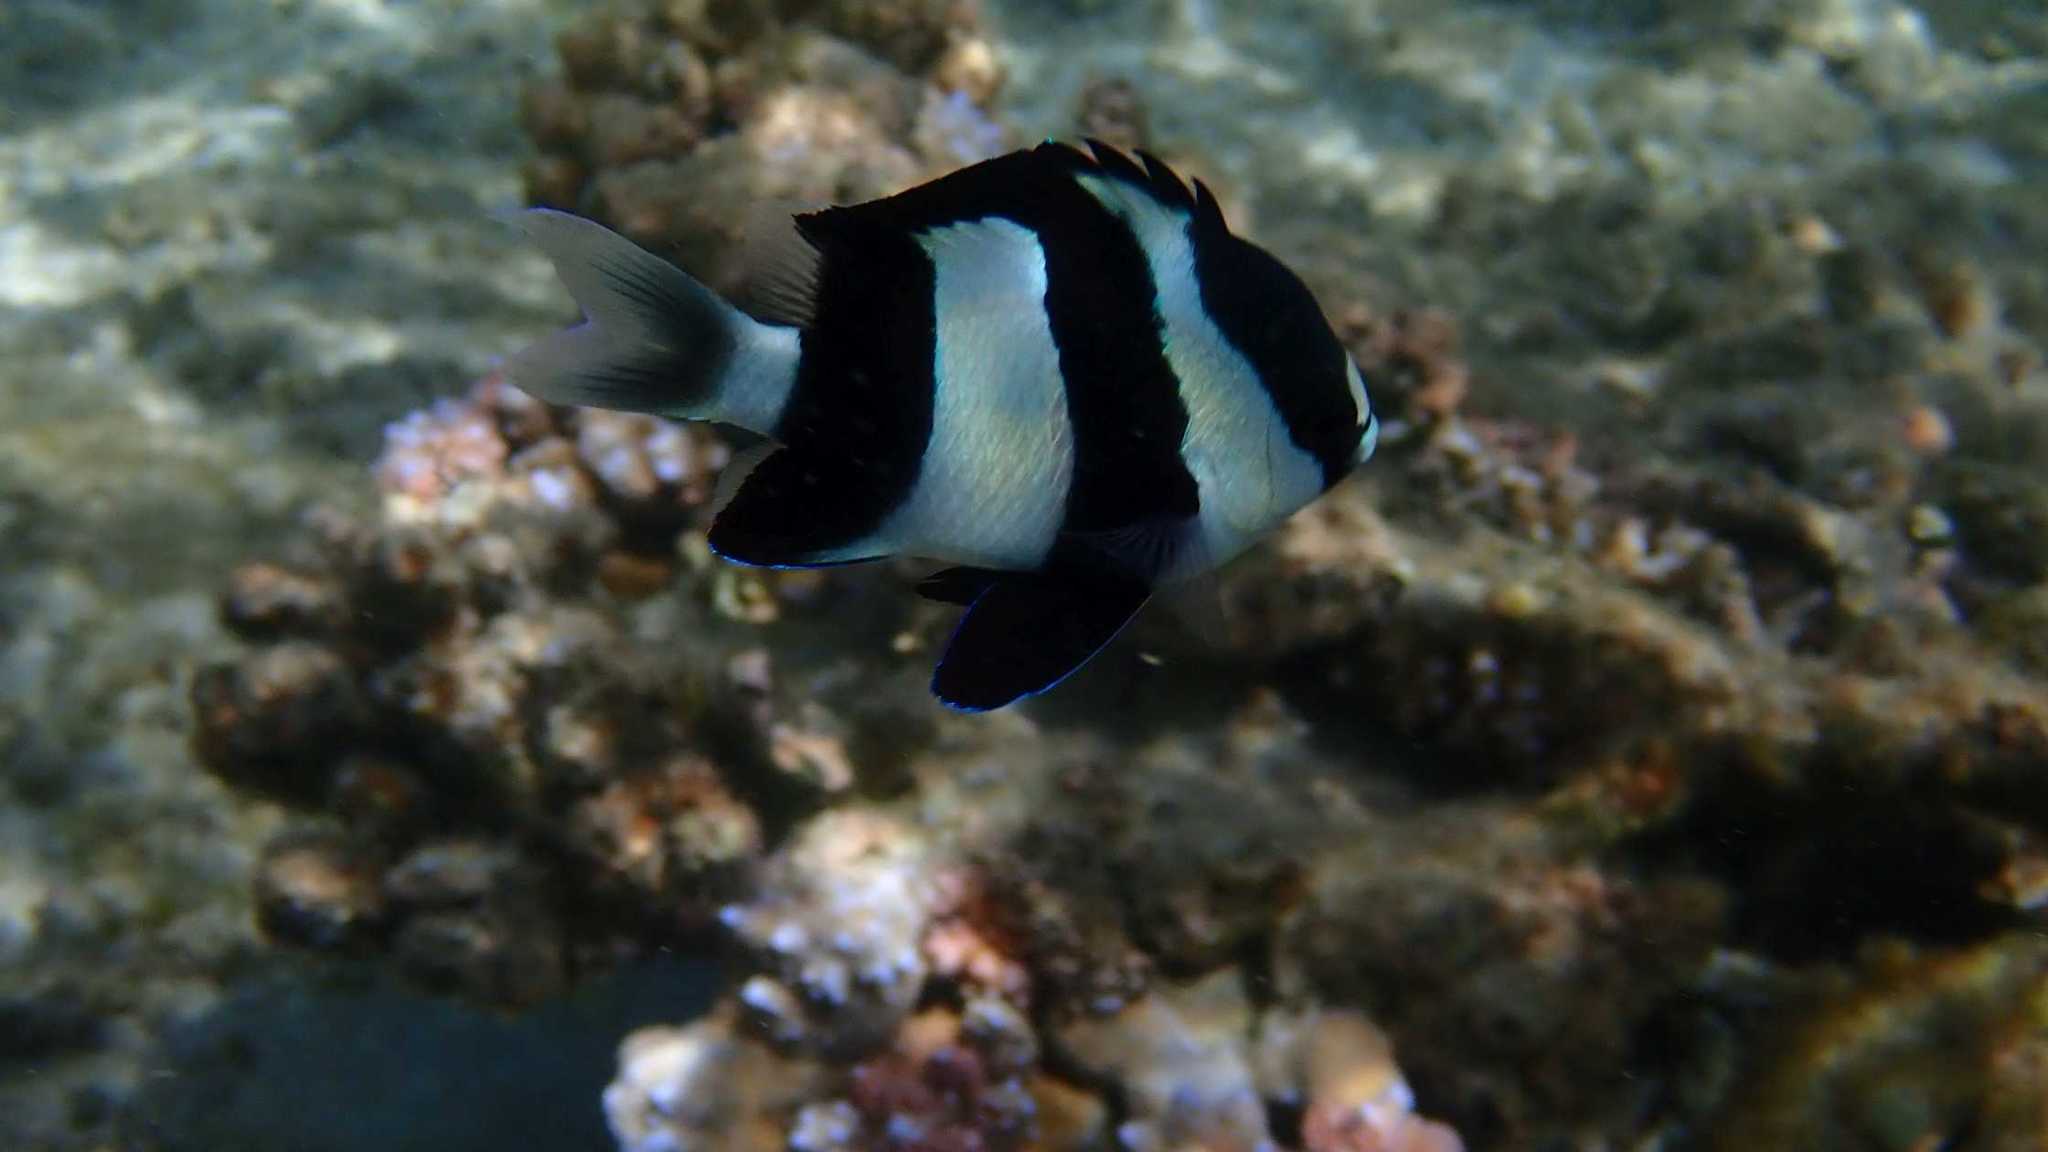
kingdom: Animalia
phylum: Chordata
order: Perciformes
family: Pomacentridae
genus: Dascyllus
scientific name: Dascyllus abudafur
